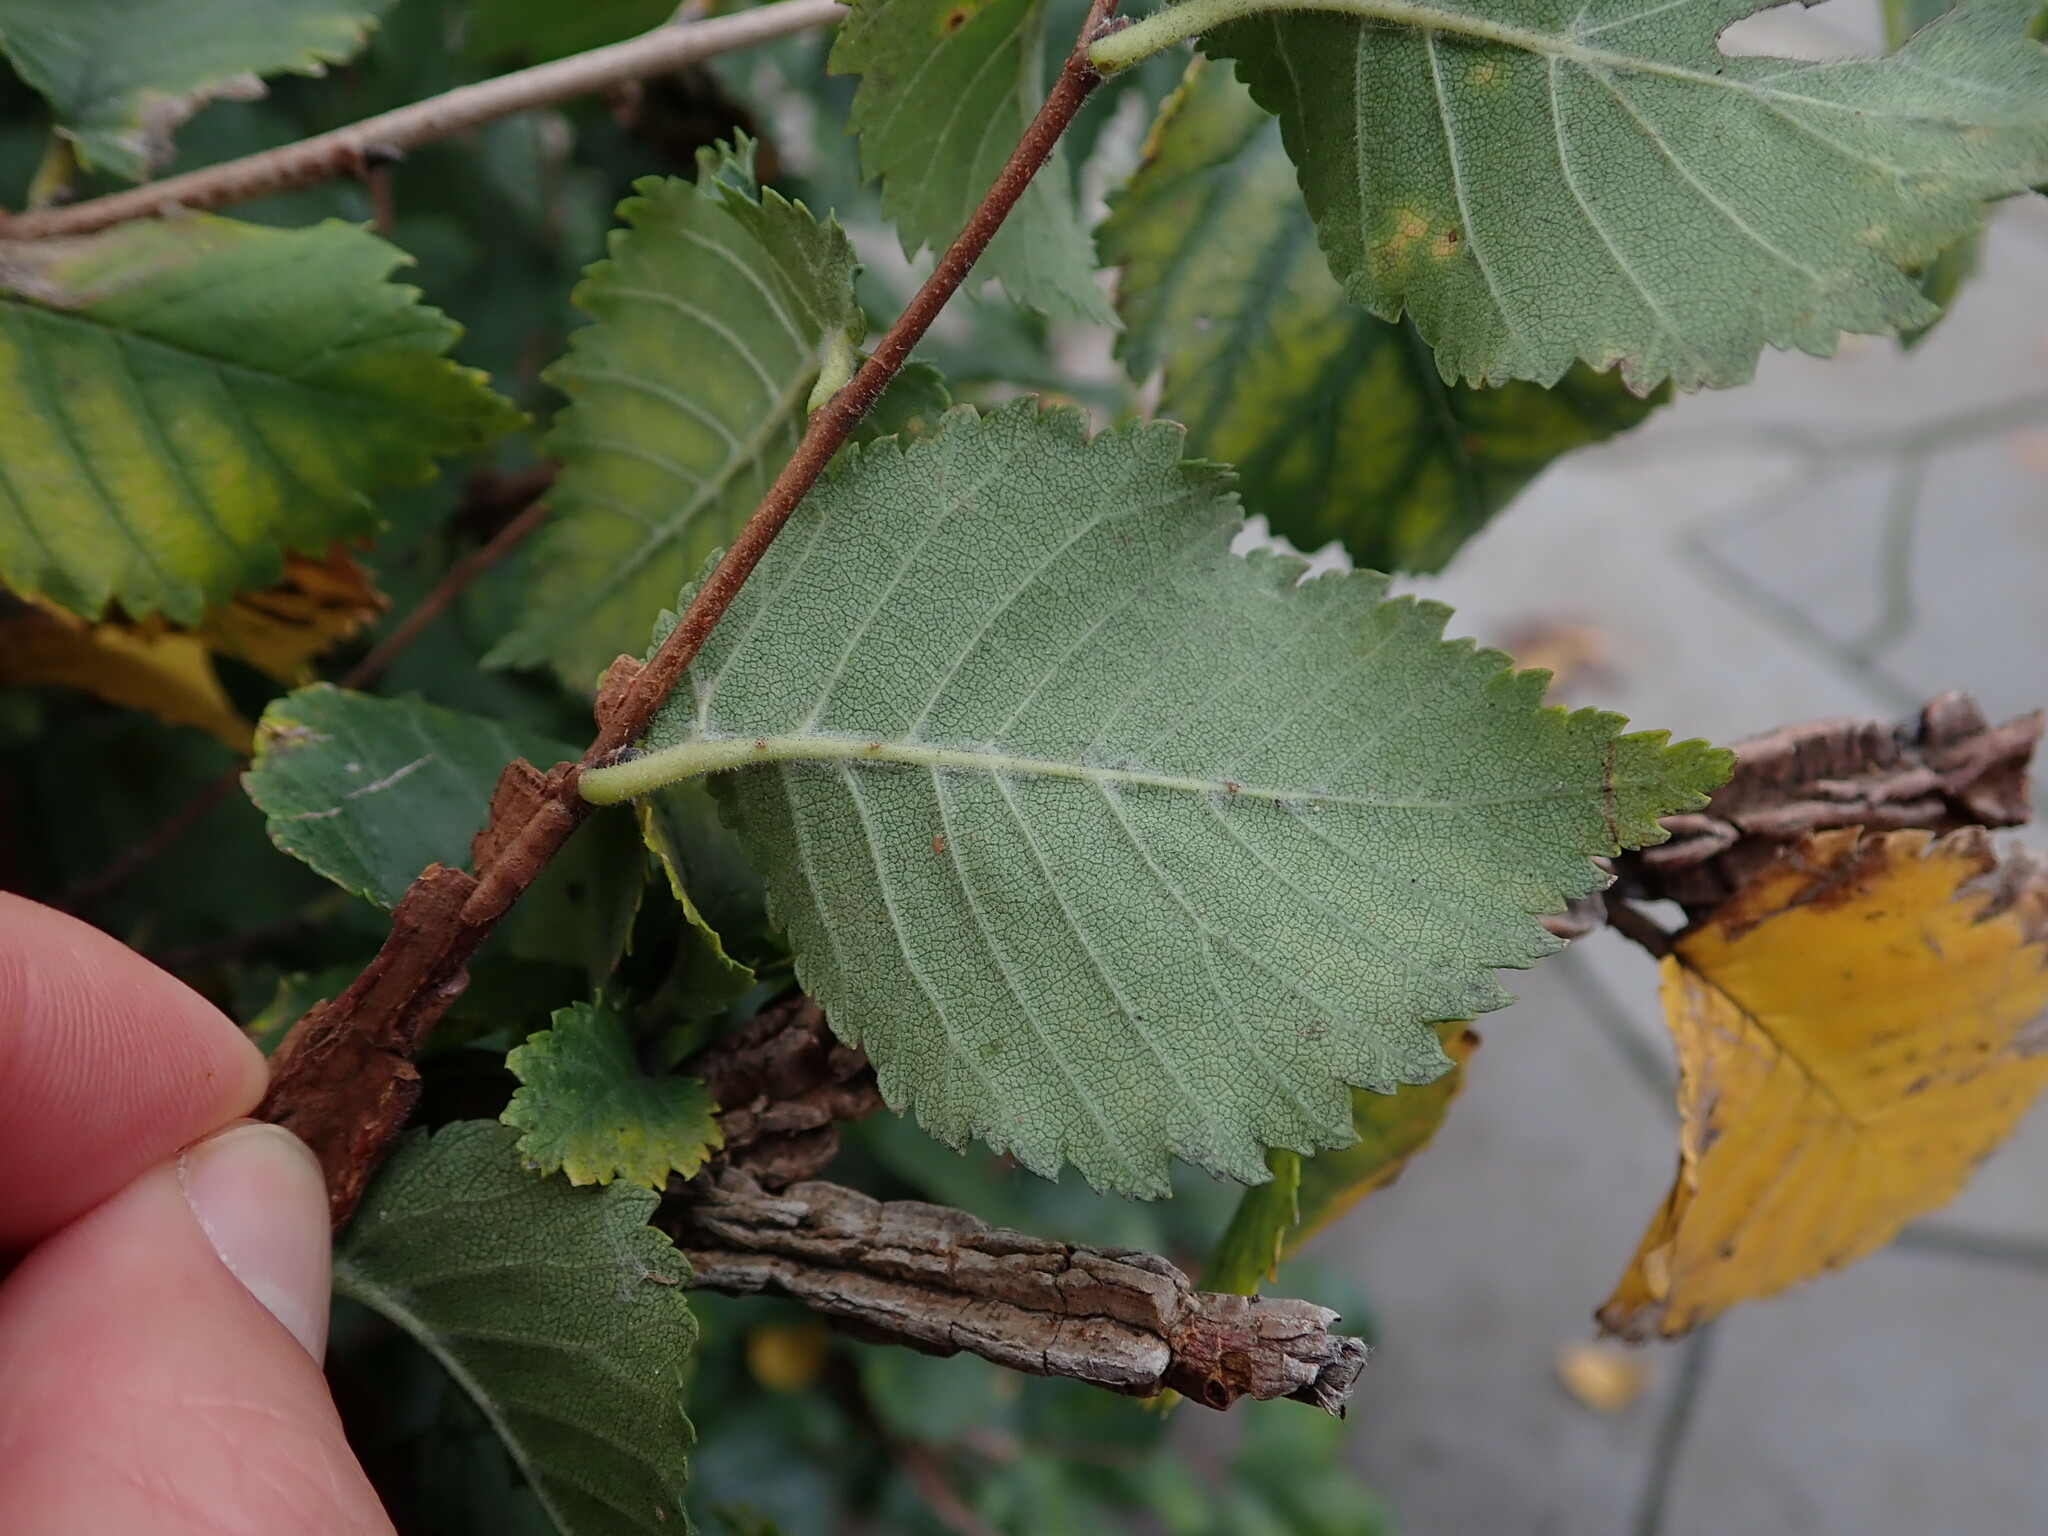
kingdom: Plantae
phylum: Tracheophyta
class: Magnoliopsida
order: Rosales
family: Ulmaceae
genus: Ulmus
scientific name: Ulmus minor
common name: Small-leaved elm
